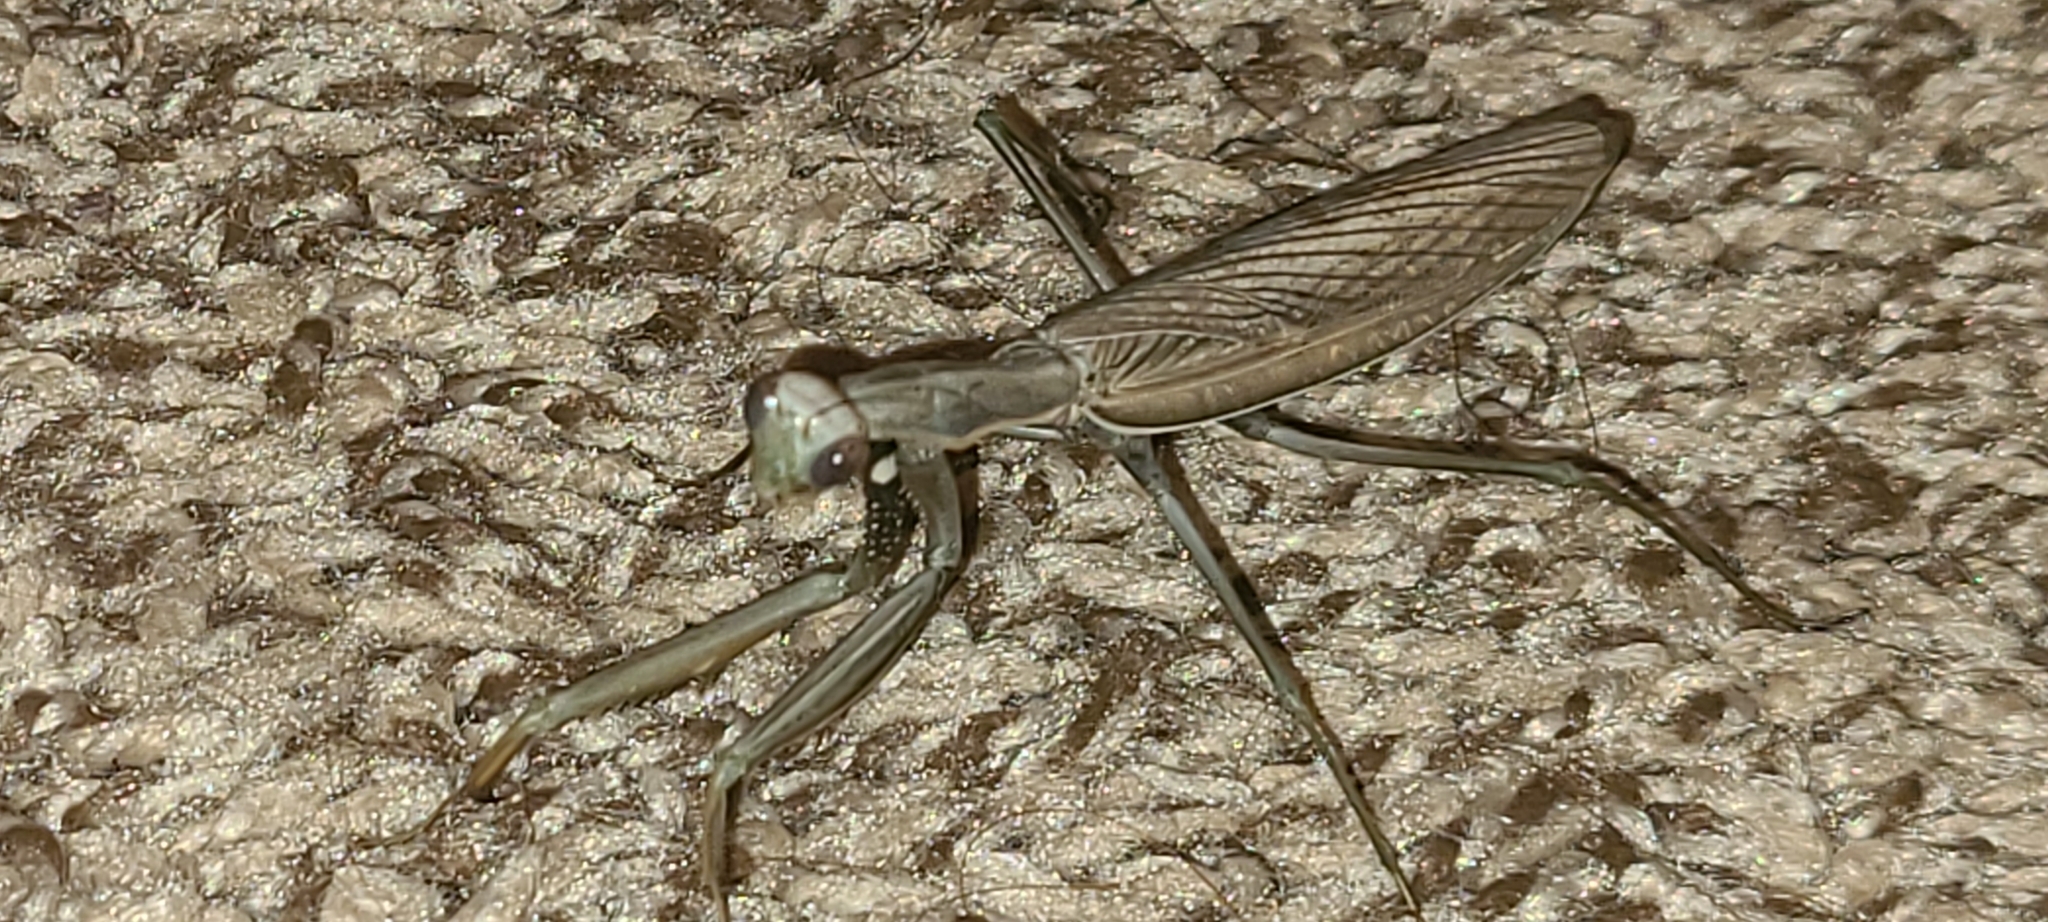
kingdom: Animalia
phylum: Arthropoda
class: Insecta
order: Mantodea
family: Mantidae
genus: Mantis
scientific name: Mantis religiosa
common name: Praying mantis
